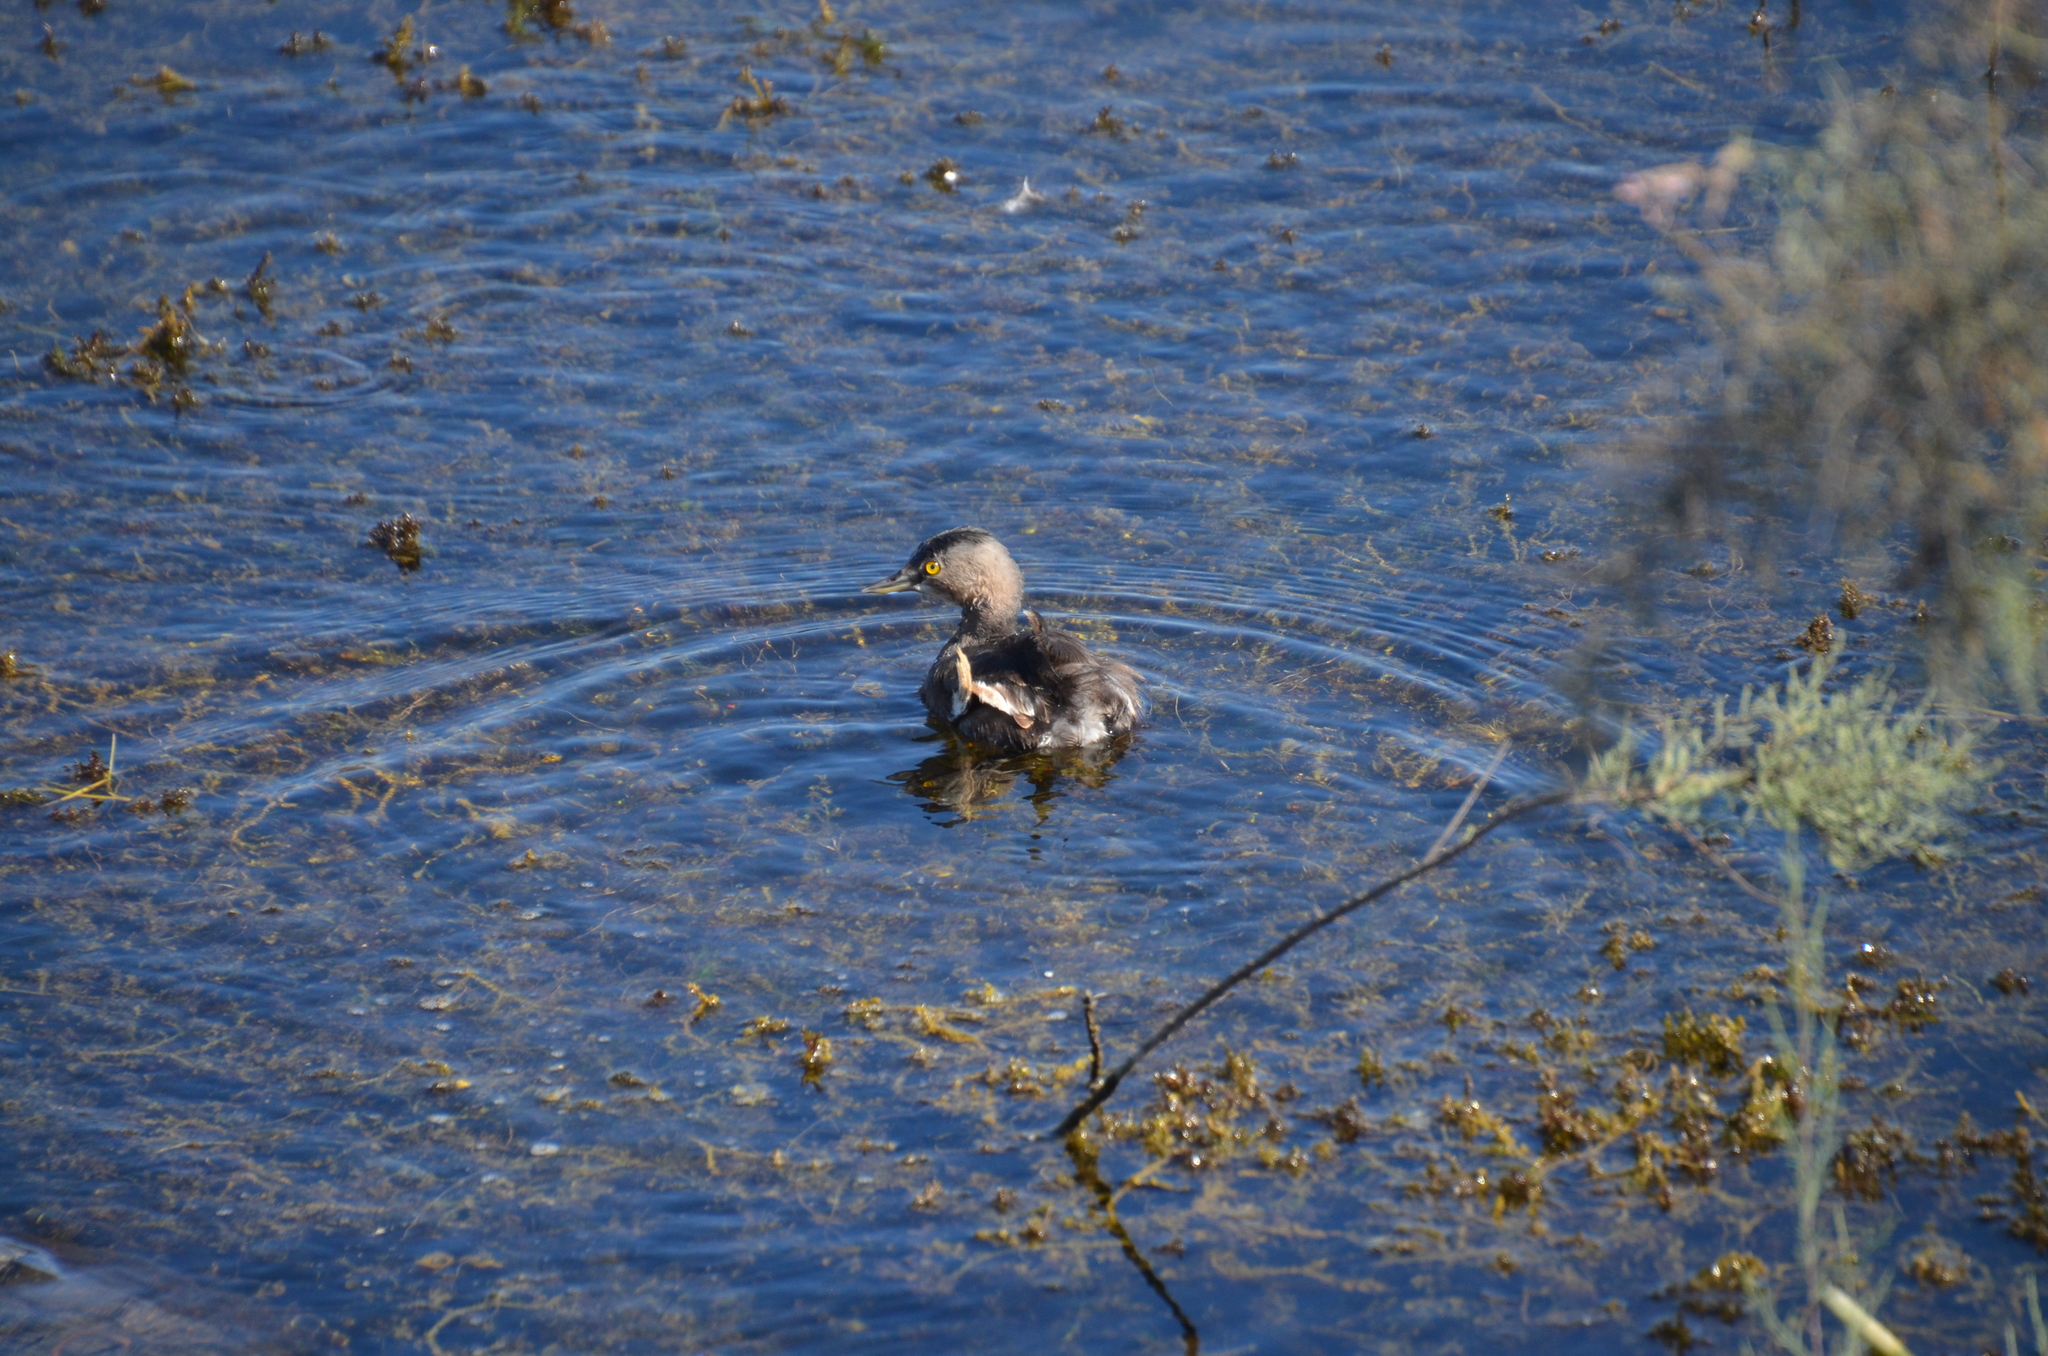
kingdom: Animalia
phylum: Chordata
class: Aves
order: Podicipediformes
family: Podicipedidae
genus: Tachybaptus
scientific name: Tachybaptus dominicus
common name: Least grebe
